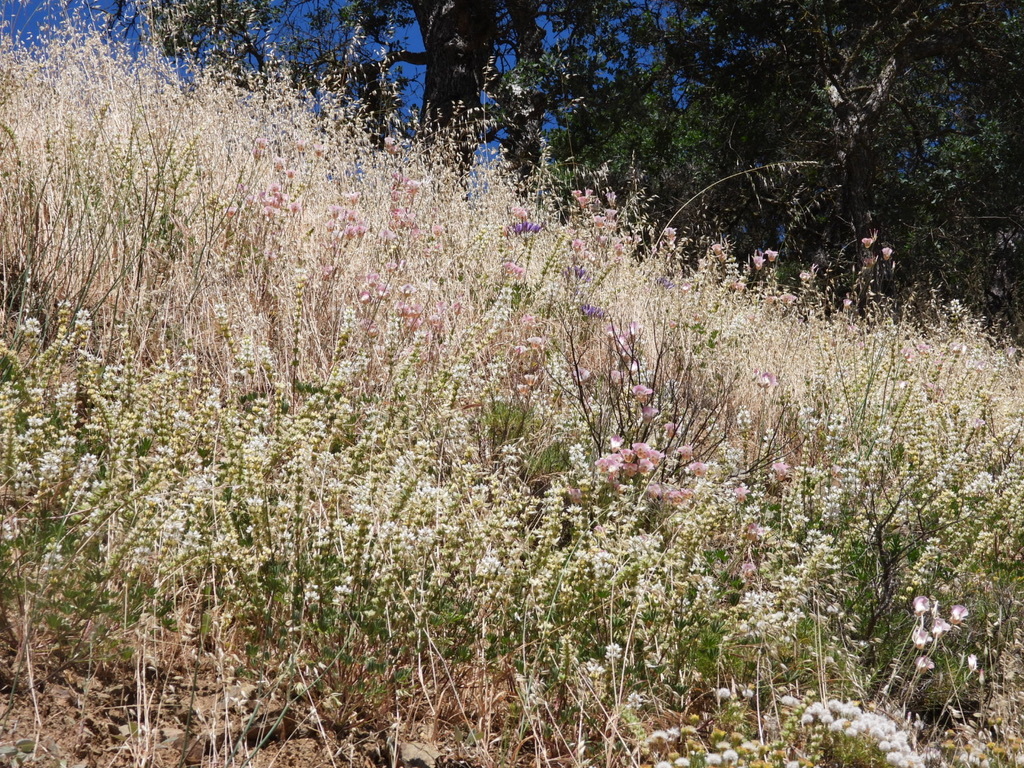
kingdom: Plantae
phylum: Tracheophyta
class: Liliopsida
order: Liliales
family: Liliaceae
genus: Calochortus
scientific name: Calochortus venustus
